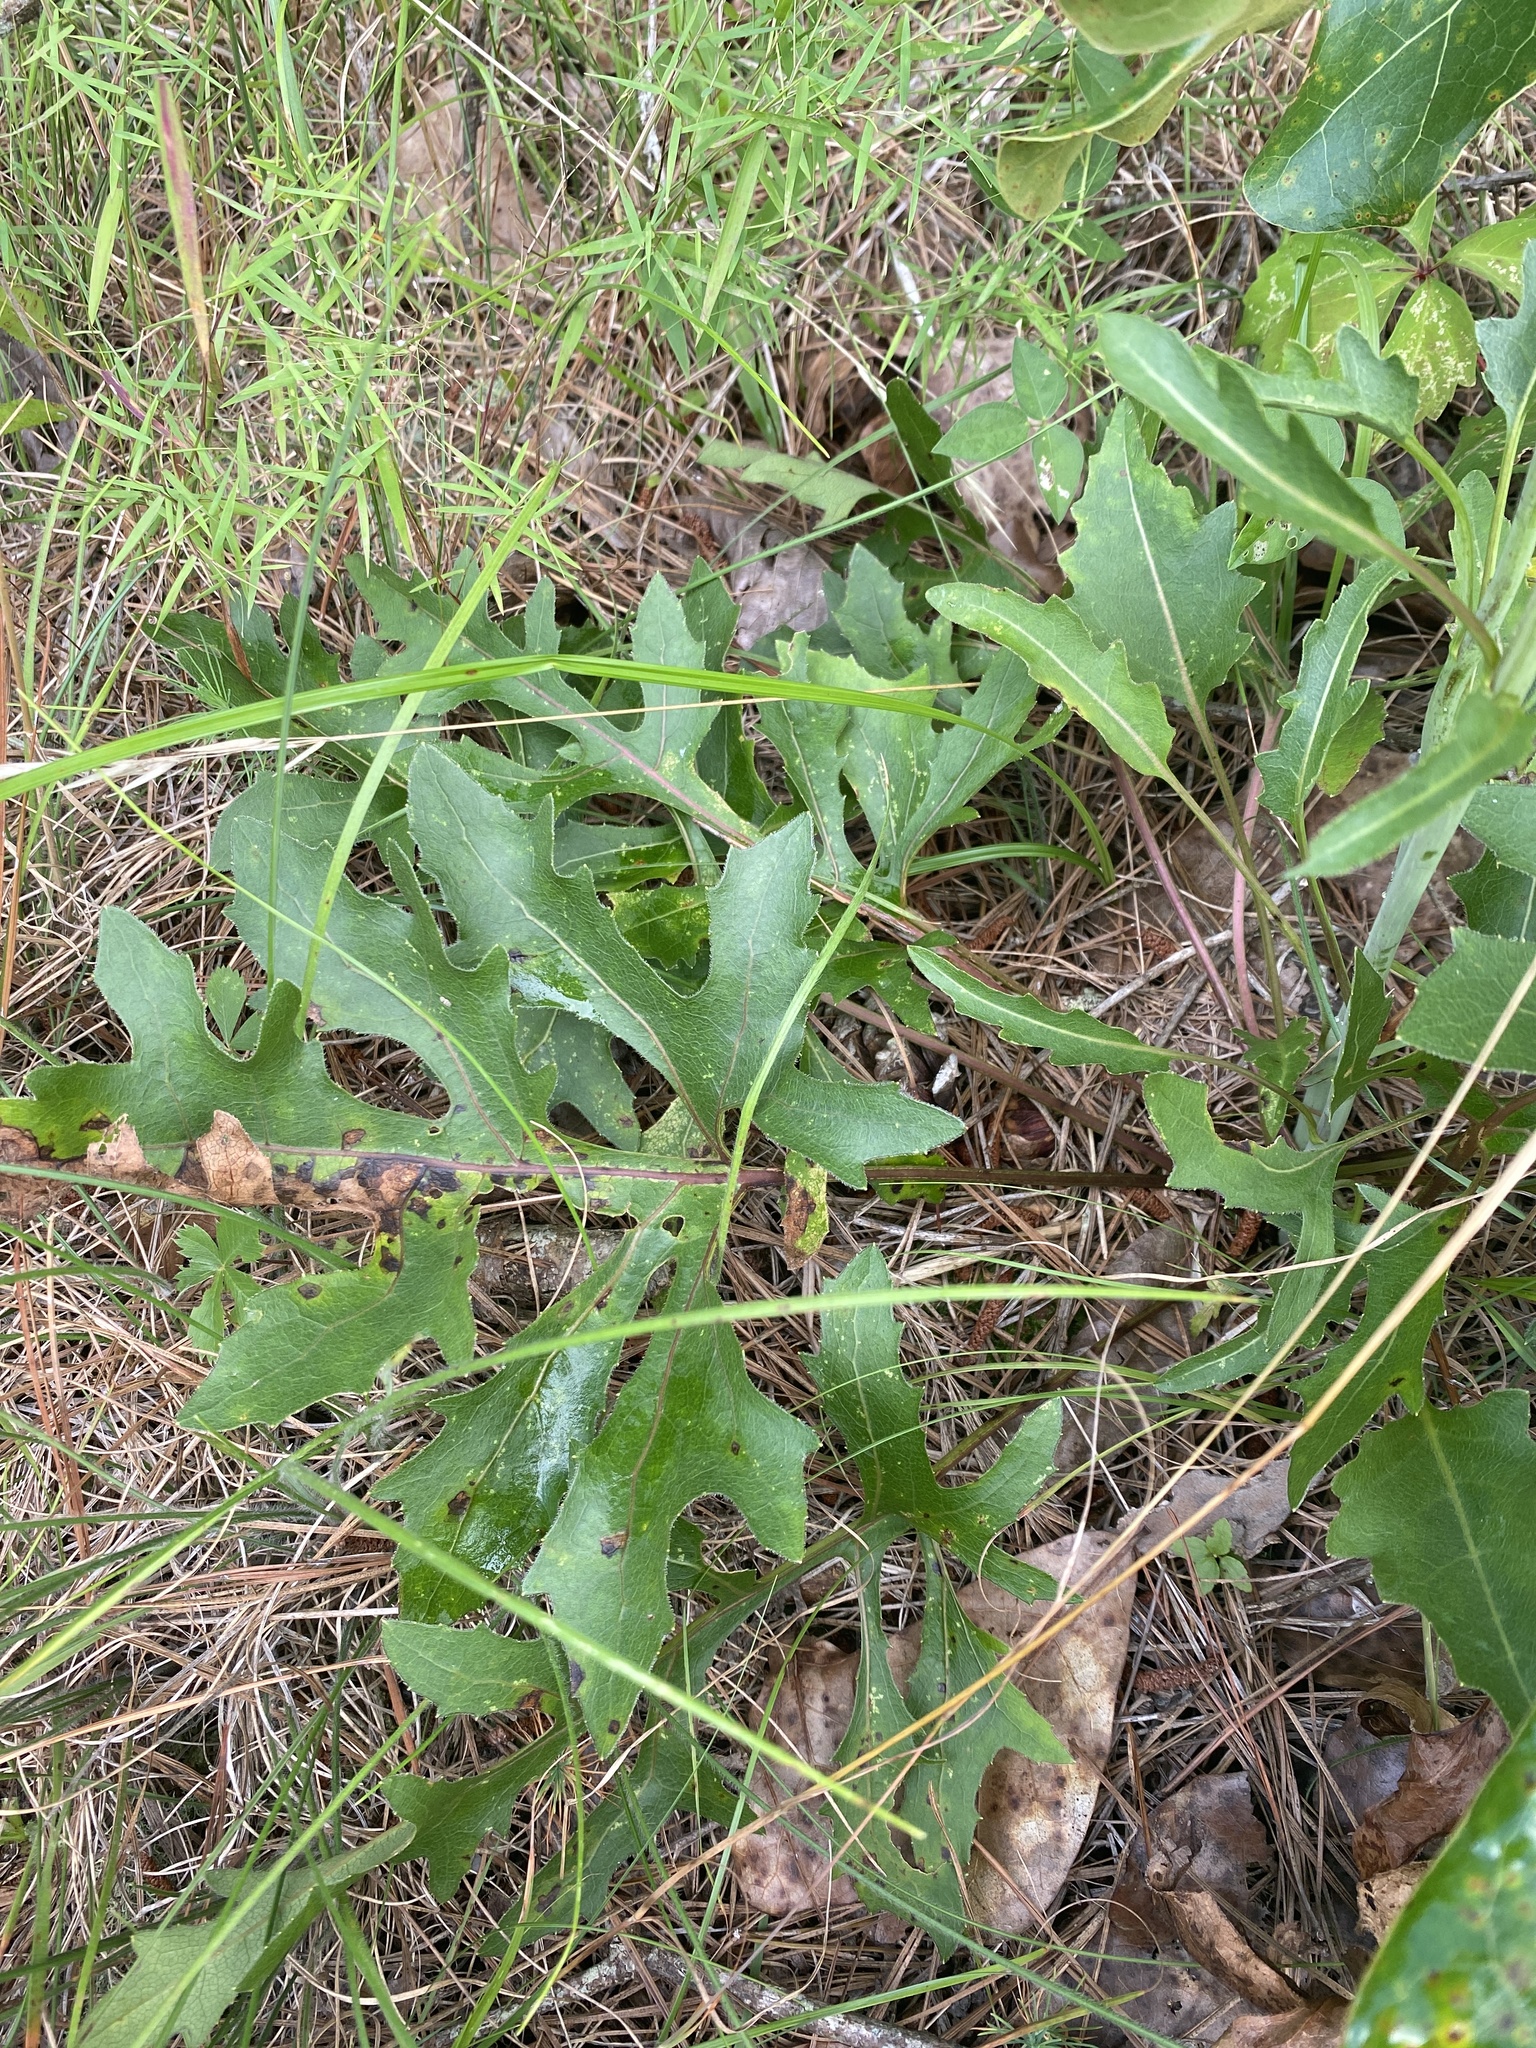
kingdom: Plantae
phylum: Tracheophyta
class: Magnoliopsida
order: Asterales
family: Asteraceae
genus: Silphium
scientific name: Silphium compositum
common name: Lesser basal-leaf rosinweed
